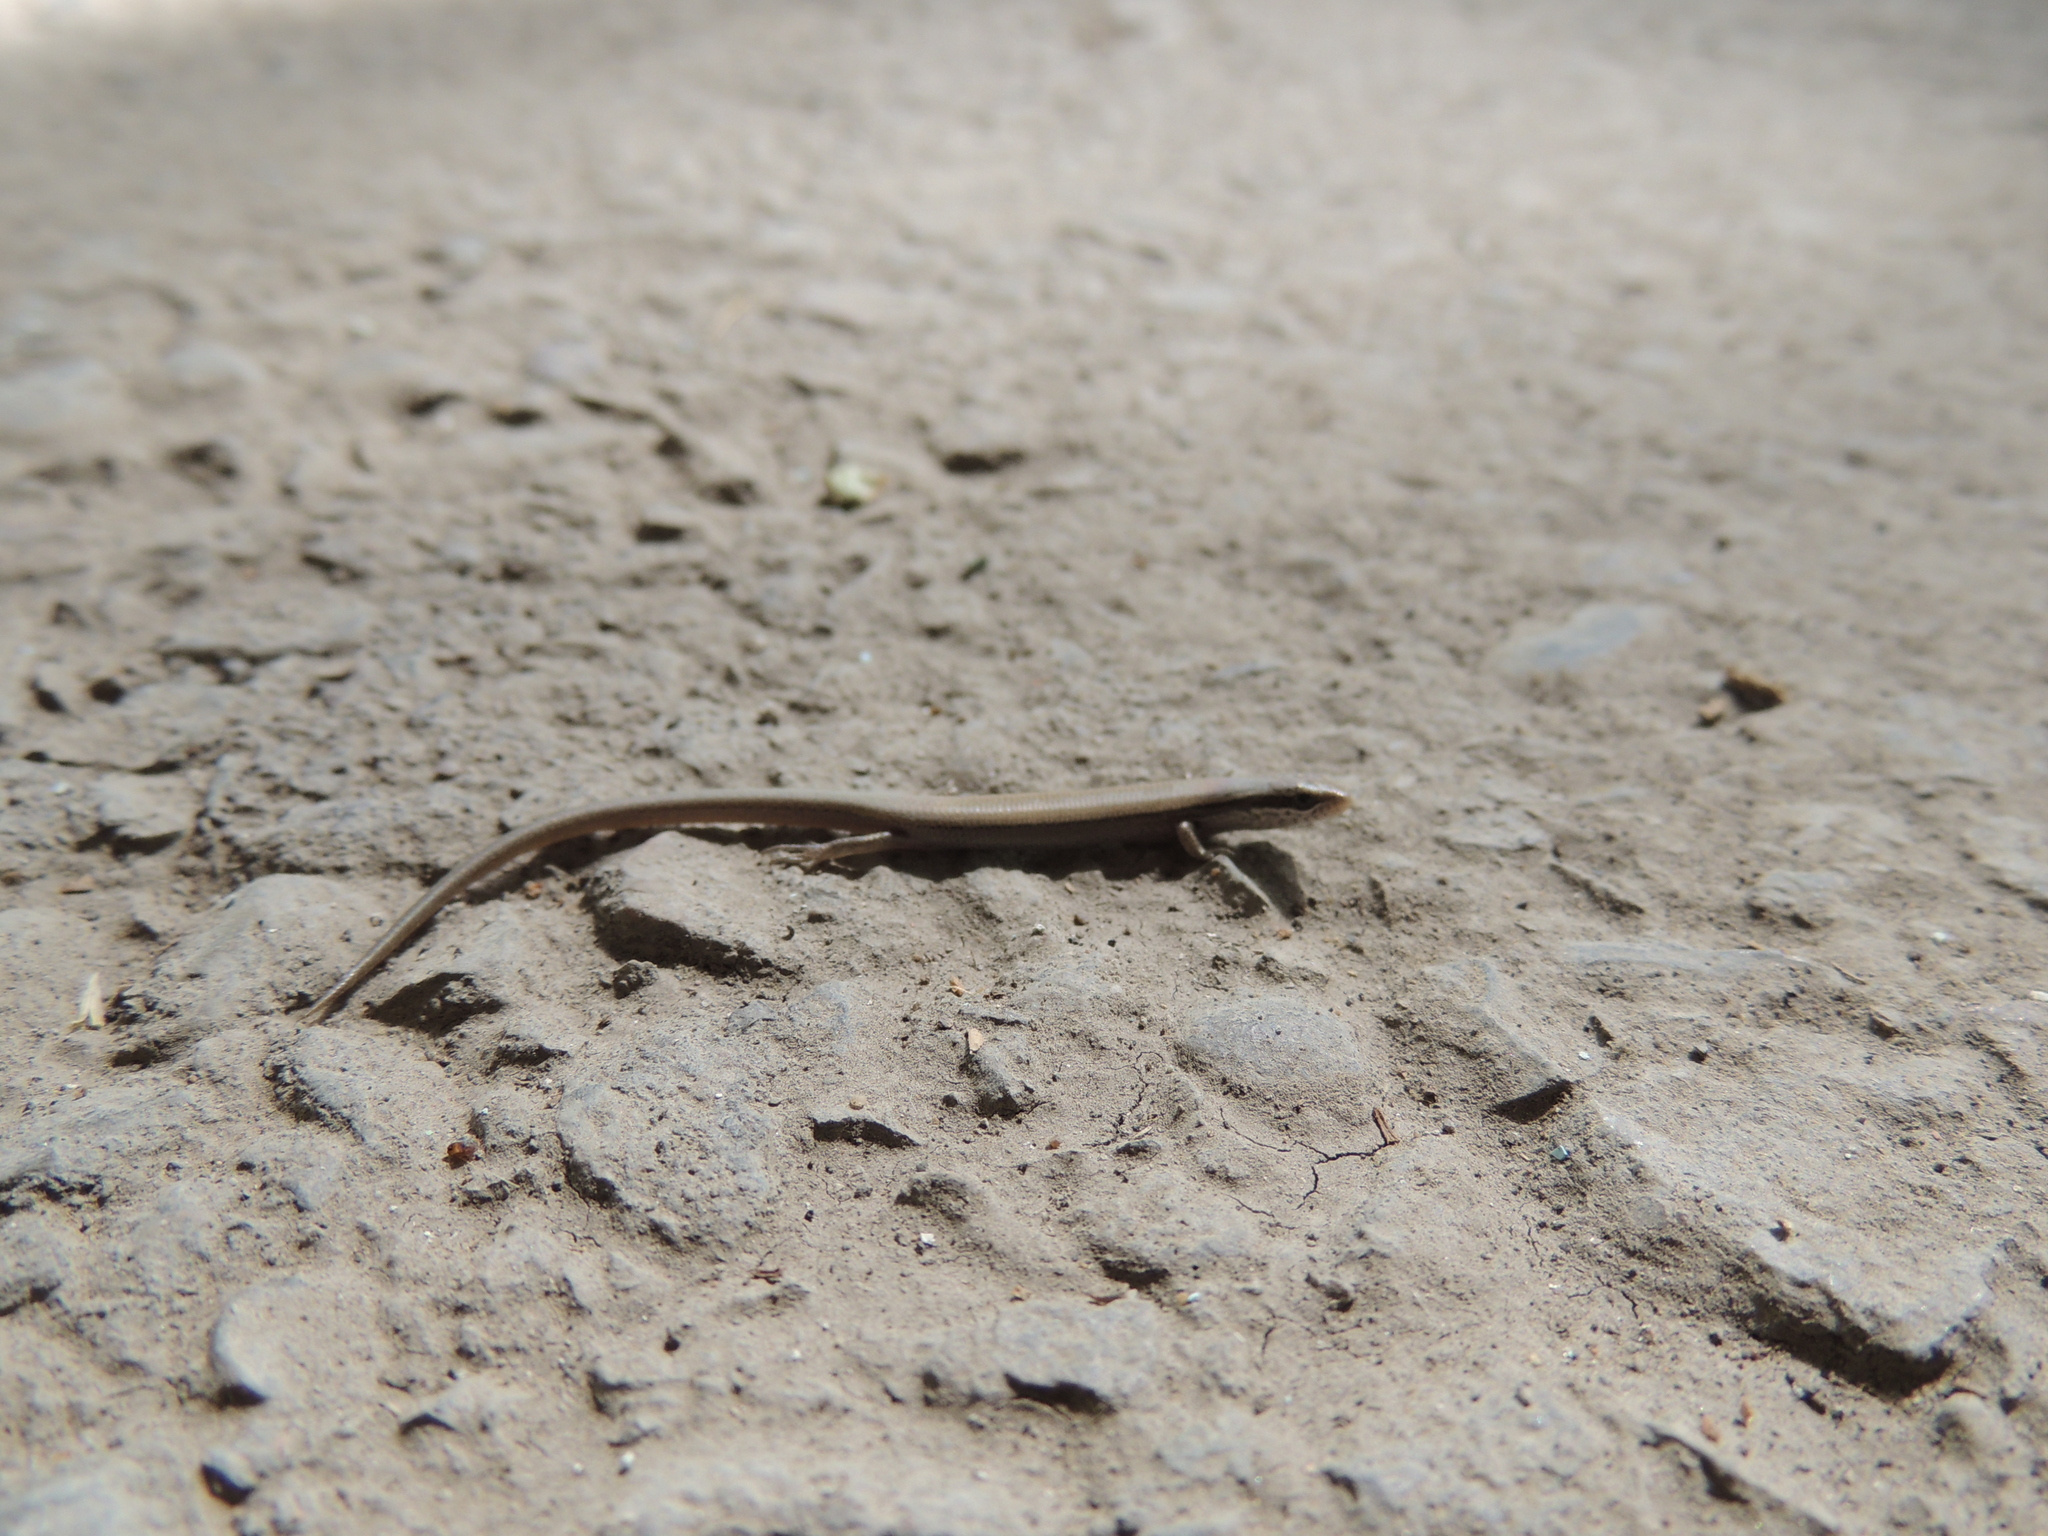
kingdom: Animalia
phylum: Chordata
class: Squamata
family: Scincidae
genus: Ablepharus
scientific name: Ablepharus deserti
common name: Desert lidless skink
